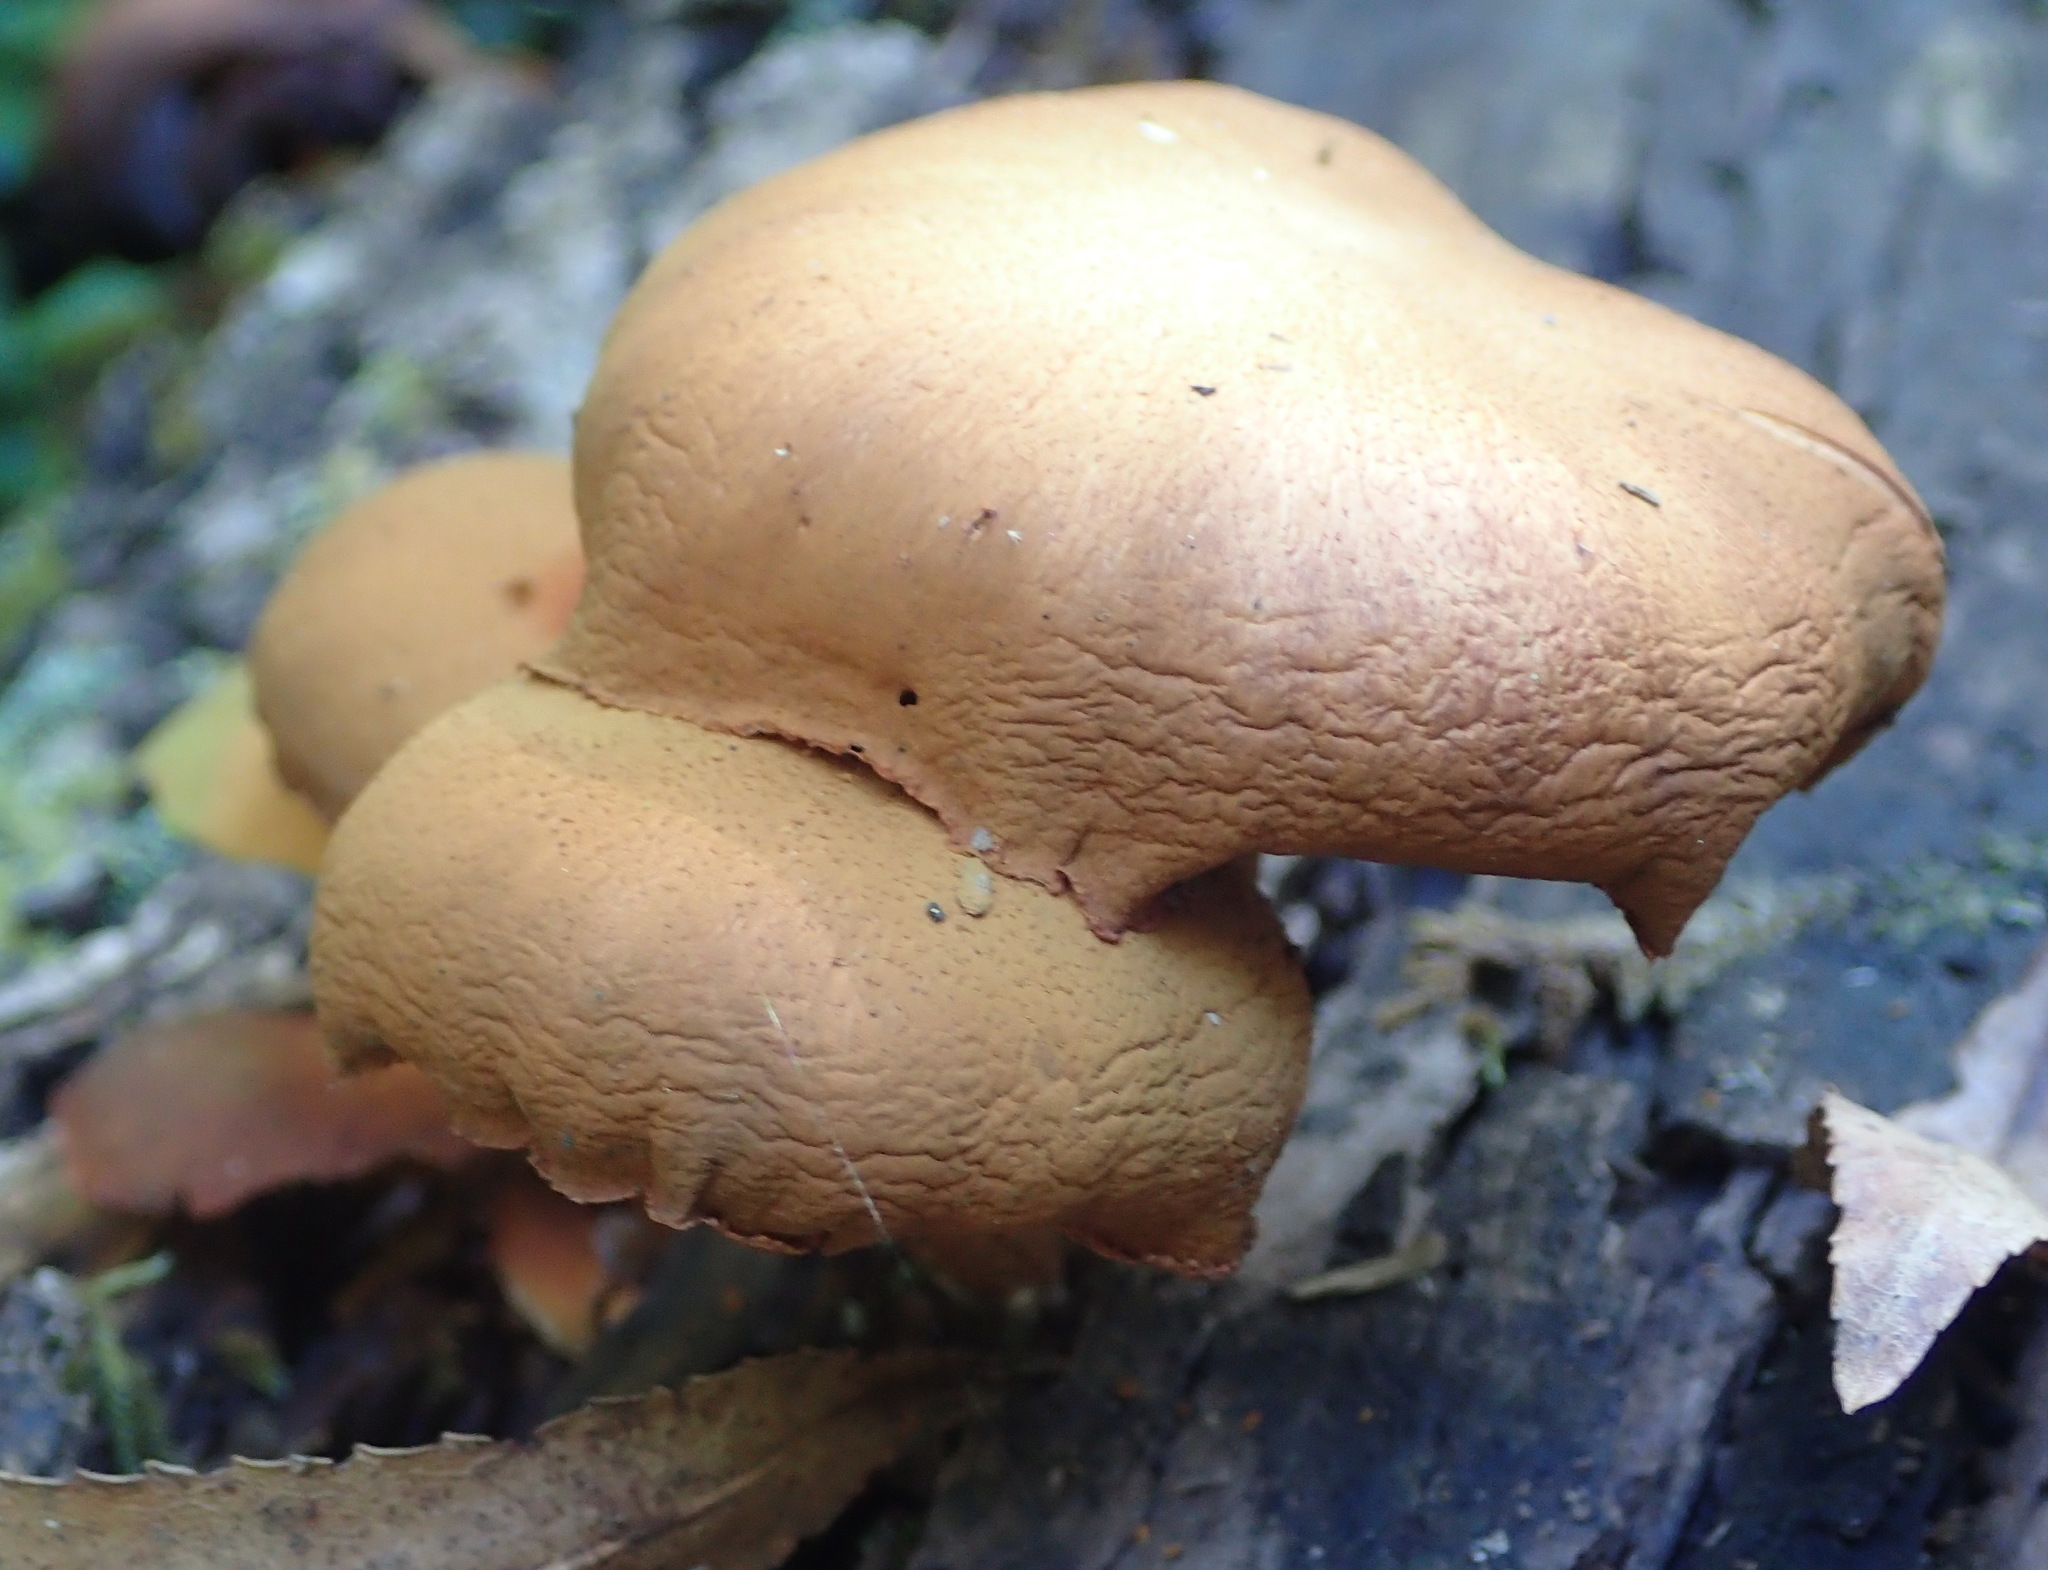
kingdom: Fungi
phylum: Basidiomycota
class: Agaricomycetes
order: Agaricales
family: Hymenogastraceae
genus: Gymnopilus
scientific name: Gymnopilus penetrans
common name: Common rustgill
